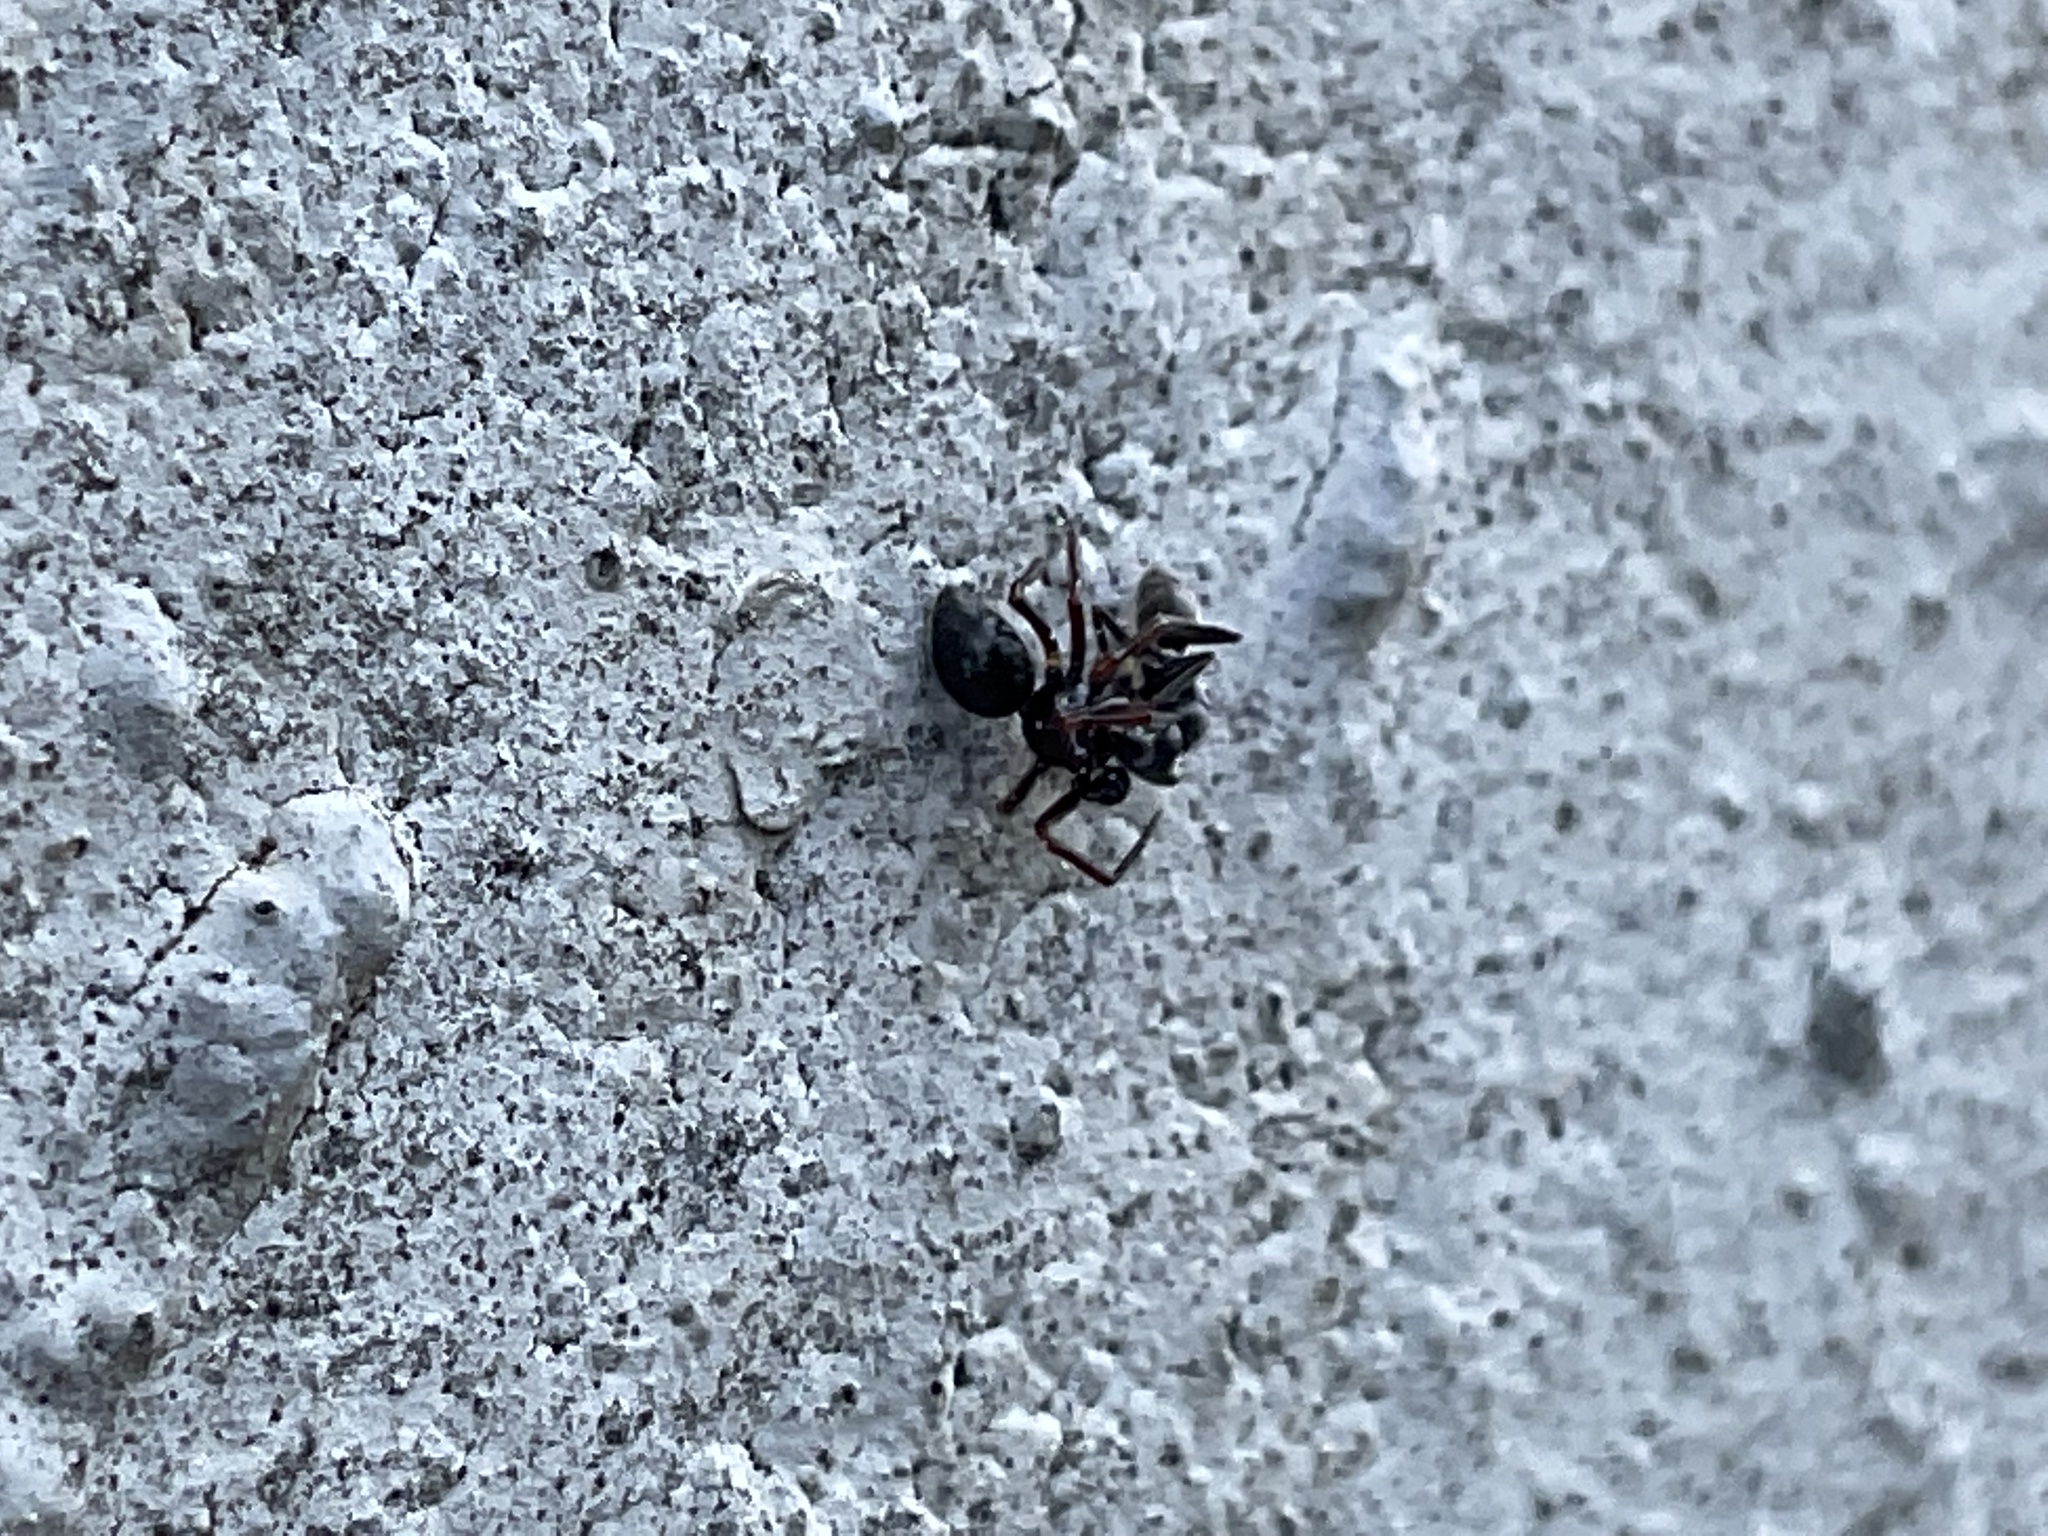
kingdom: Animalia
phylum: Arthropoda
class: Arachnida
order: Araneae
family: Theridiidae
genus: Euryopis
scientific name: Euryopis episinoides
